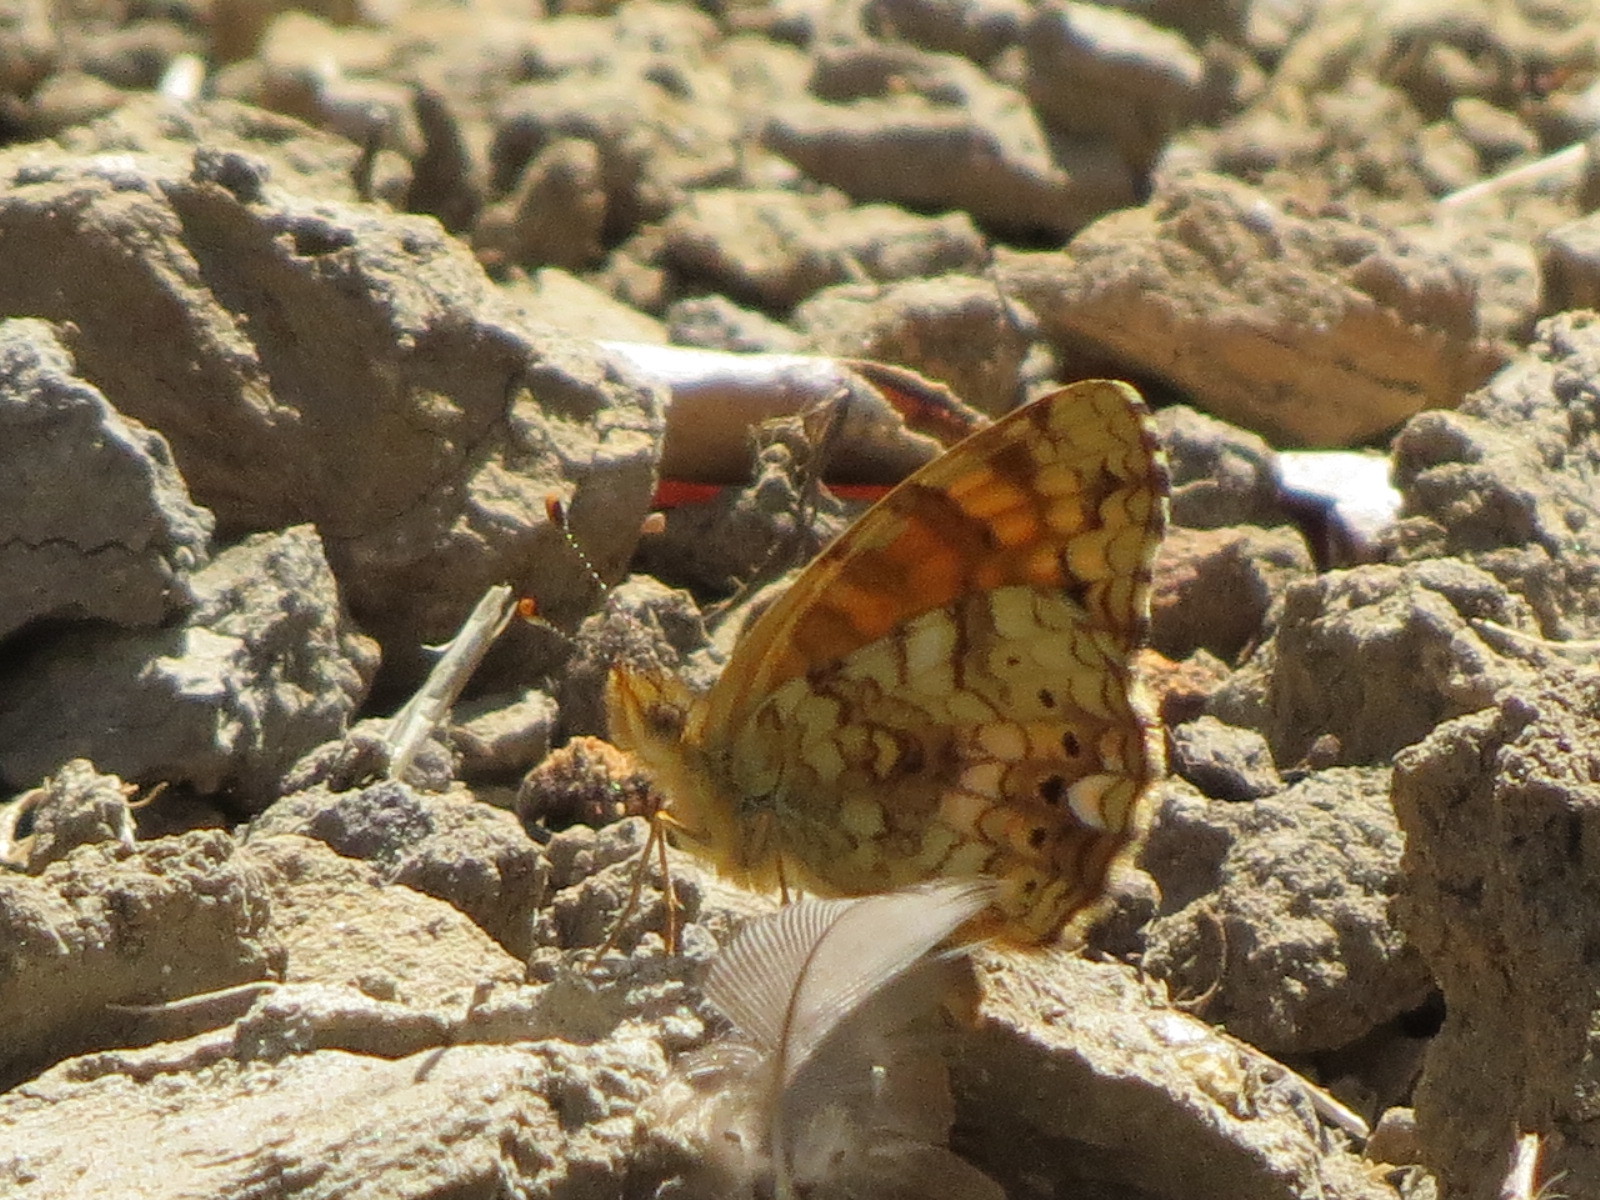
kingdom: Animalia
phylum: Arthropoda
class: Insecta
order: Lepidoptera
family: Nymphalidae
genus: Eresia
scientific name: Eresia aveyrona
